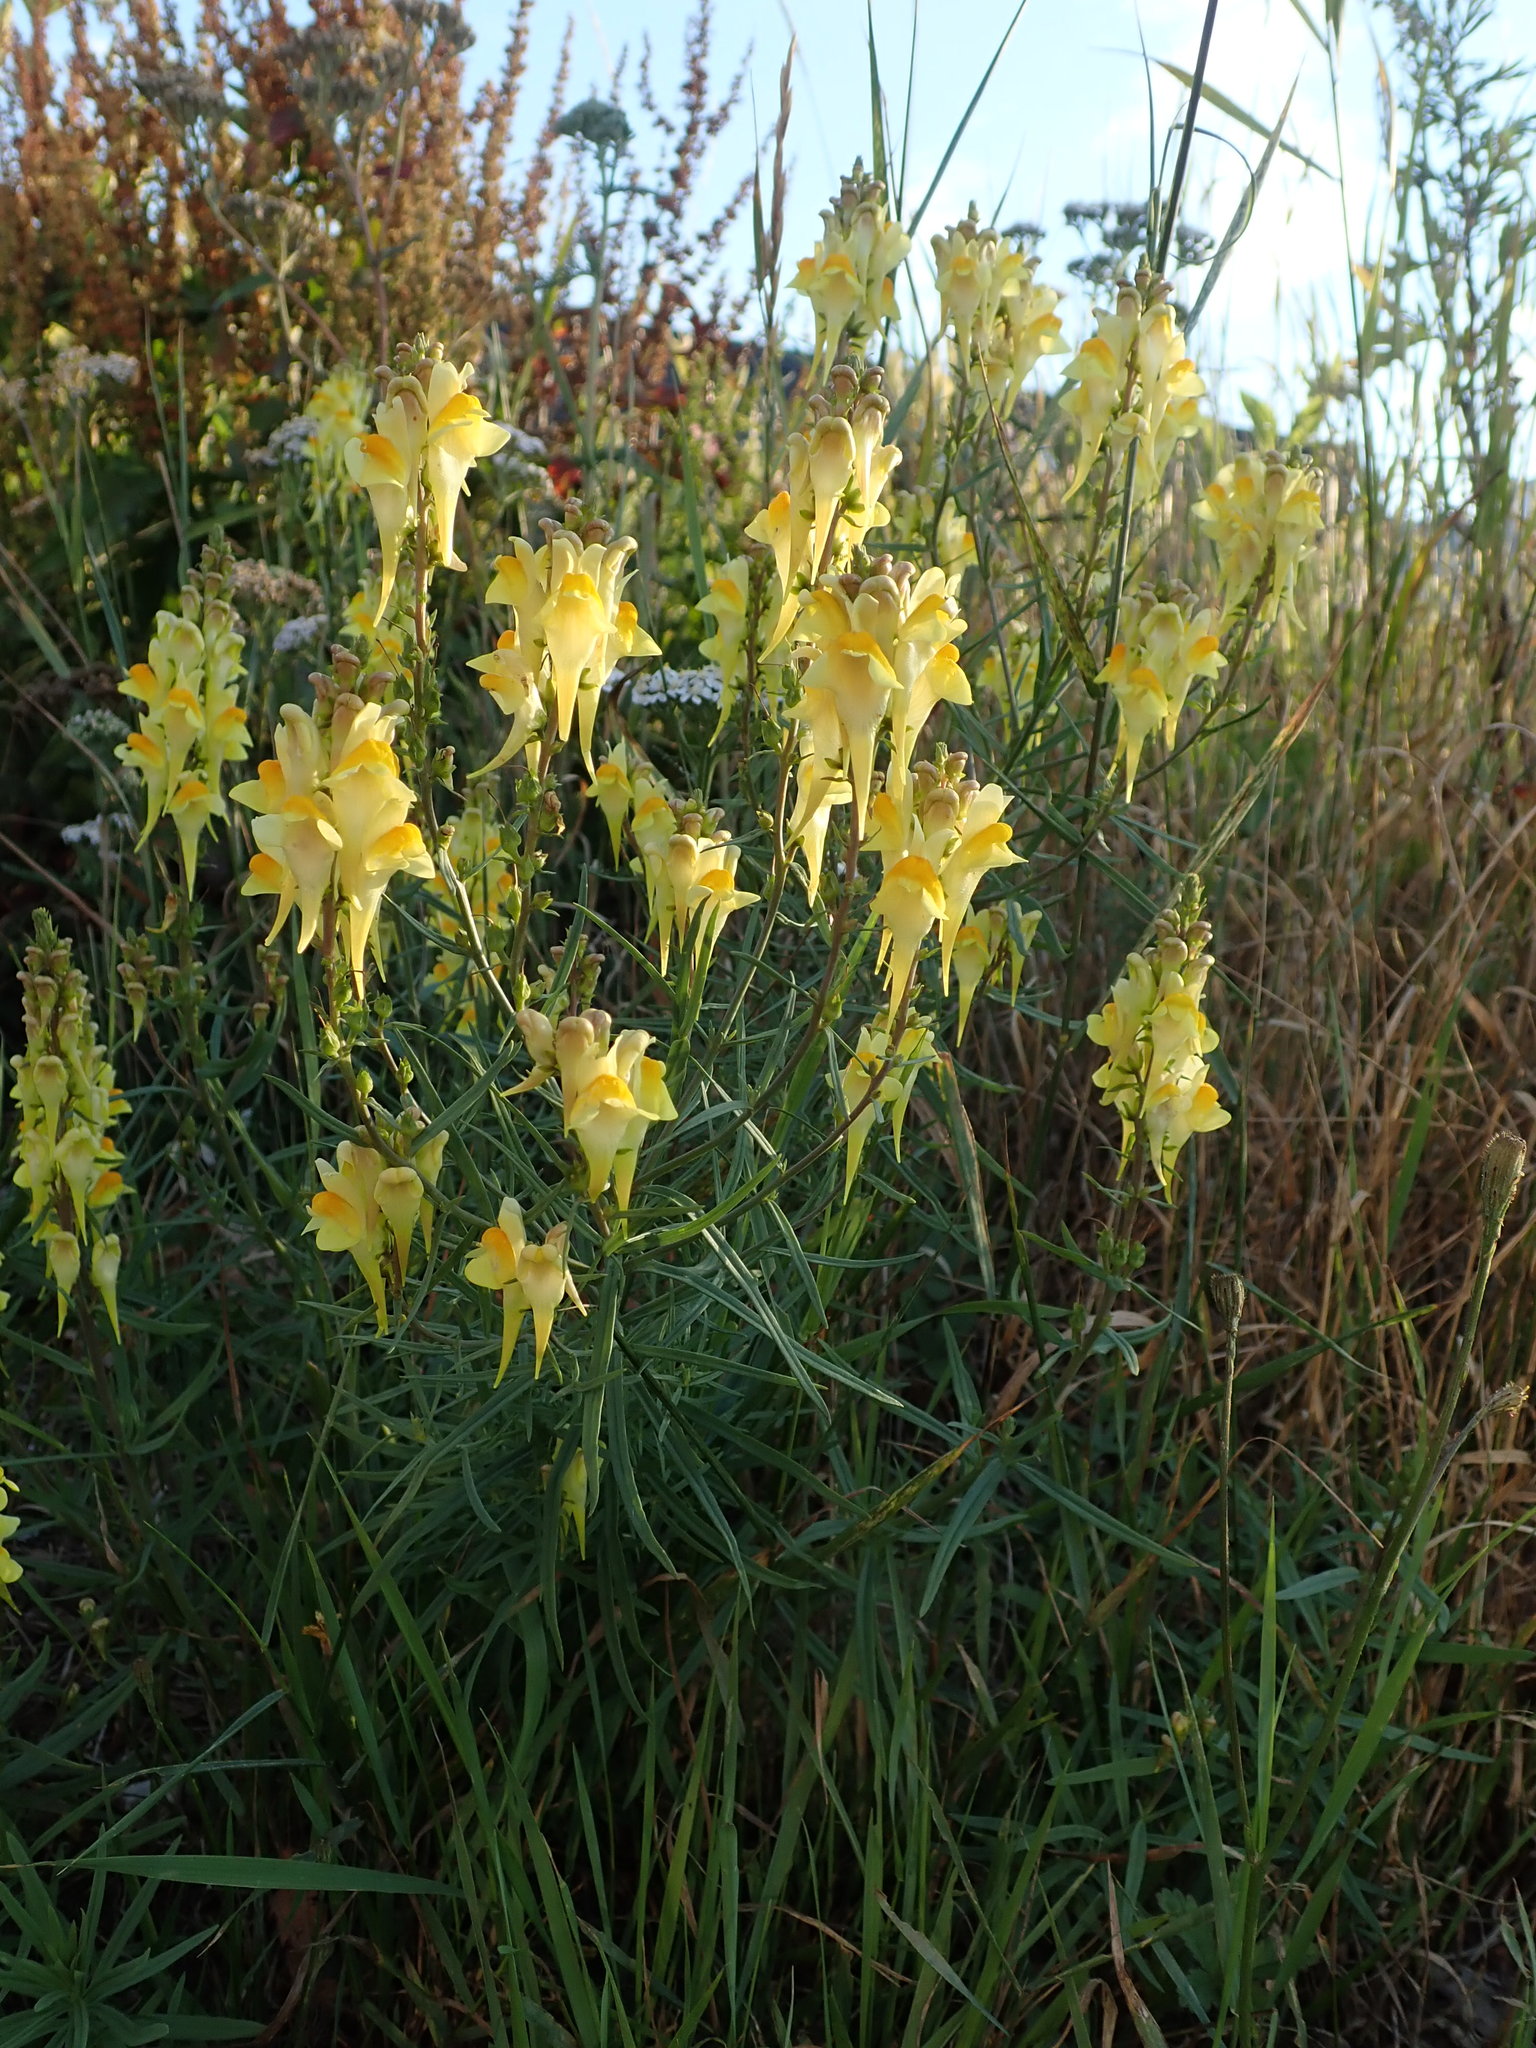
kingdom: Plantae
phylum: Tracheophyta
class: Magnoliopsida
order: Lamiales
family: Plantaginaceae
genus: Linaria
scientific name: Linaria vulgaris
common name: Butter and eggs
